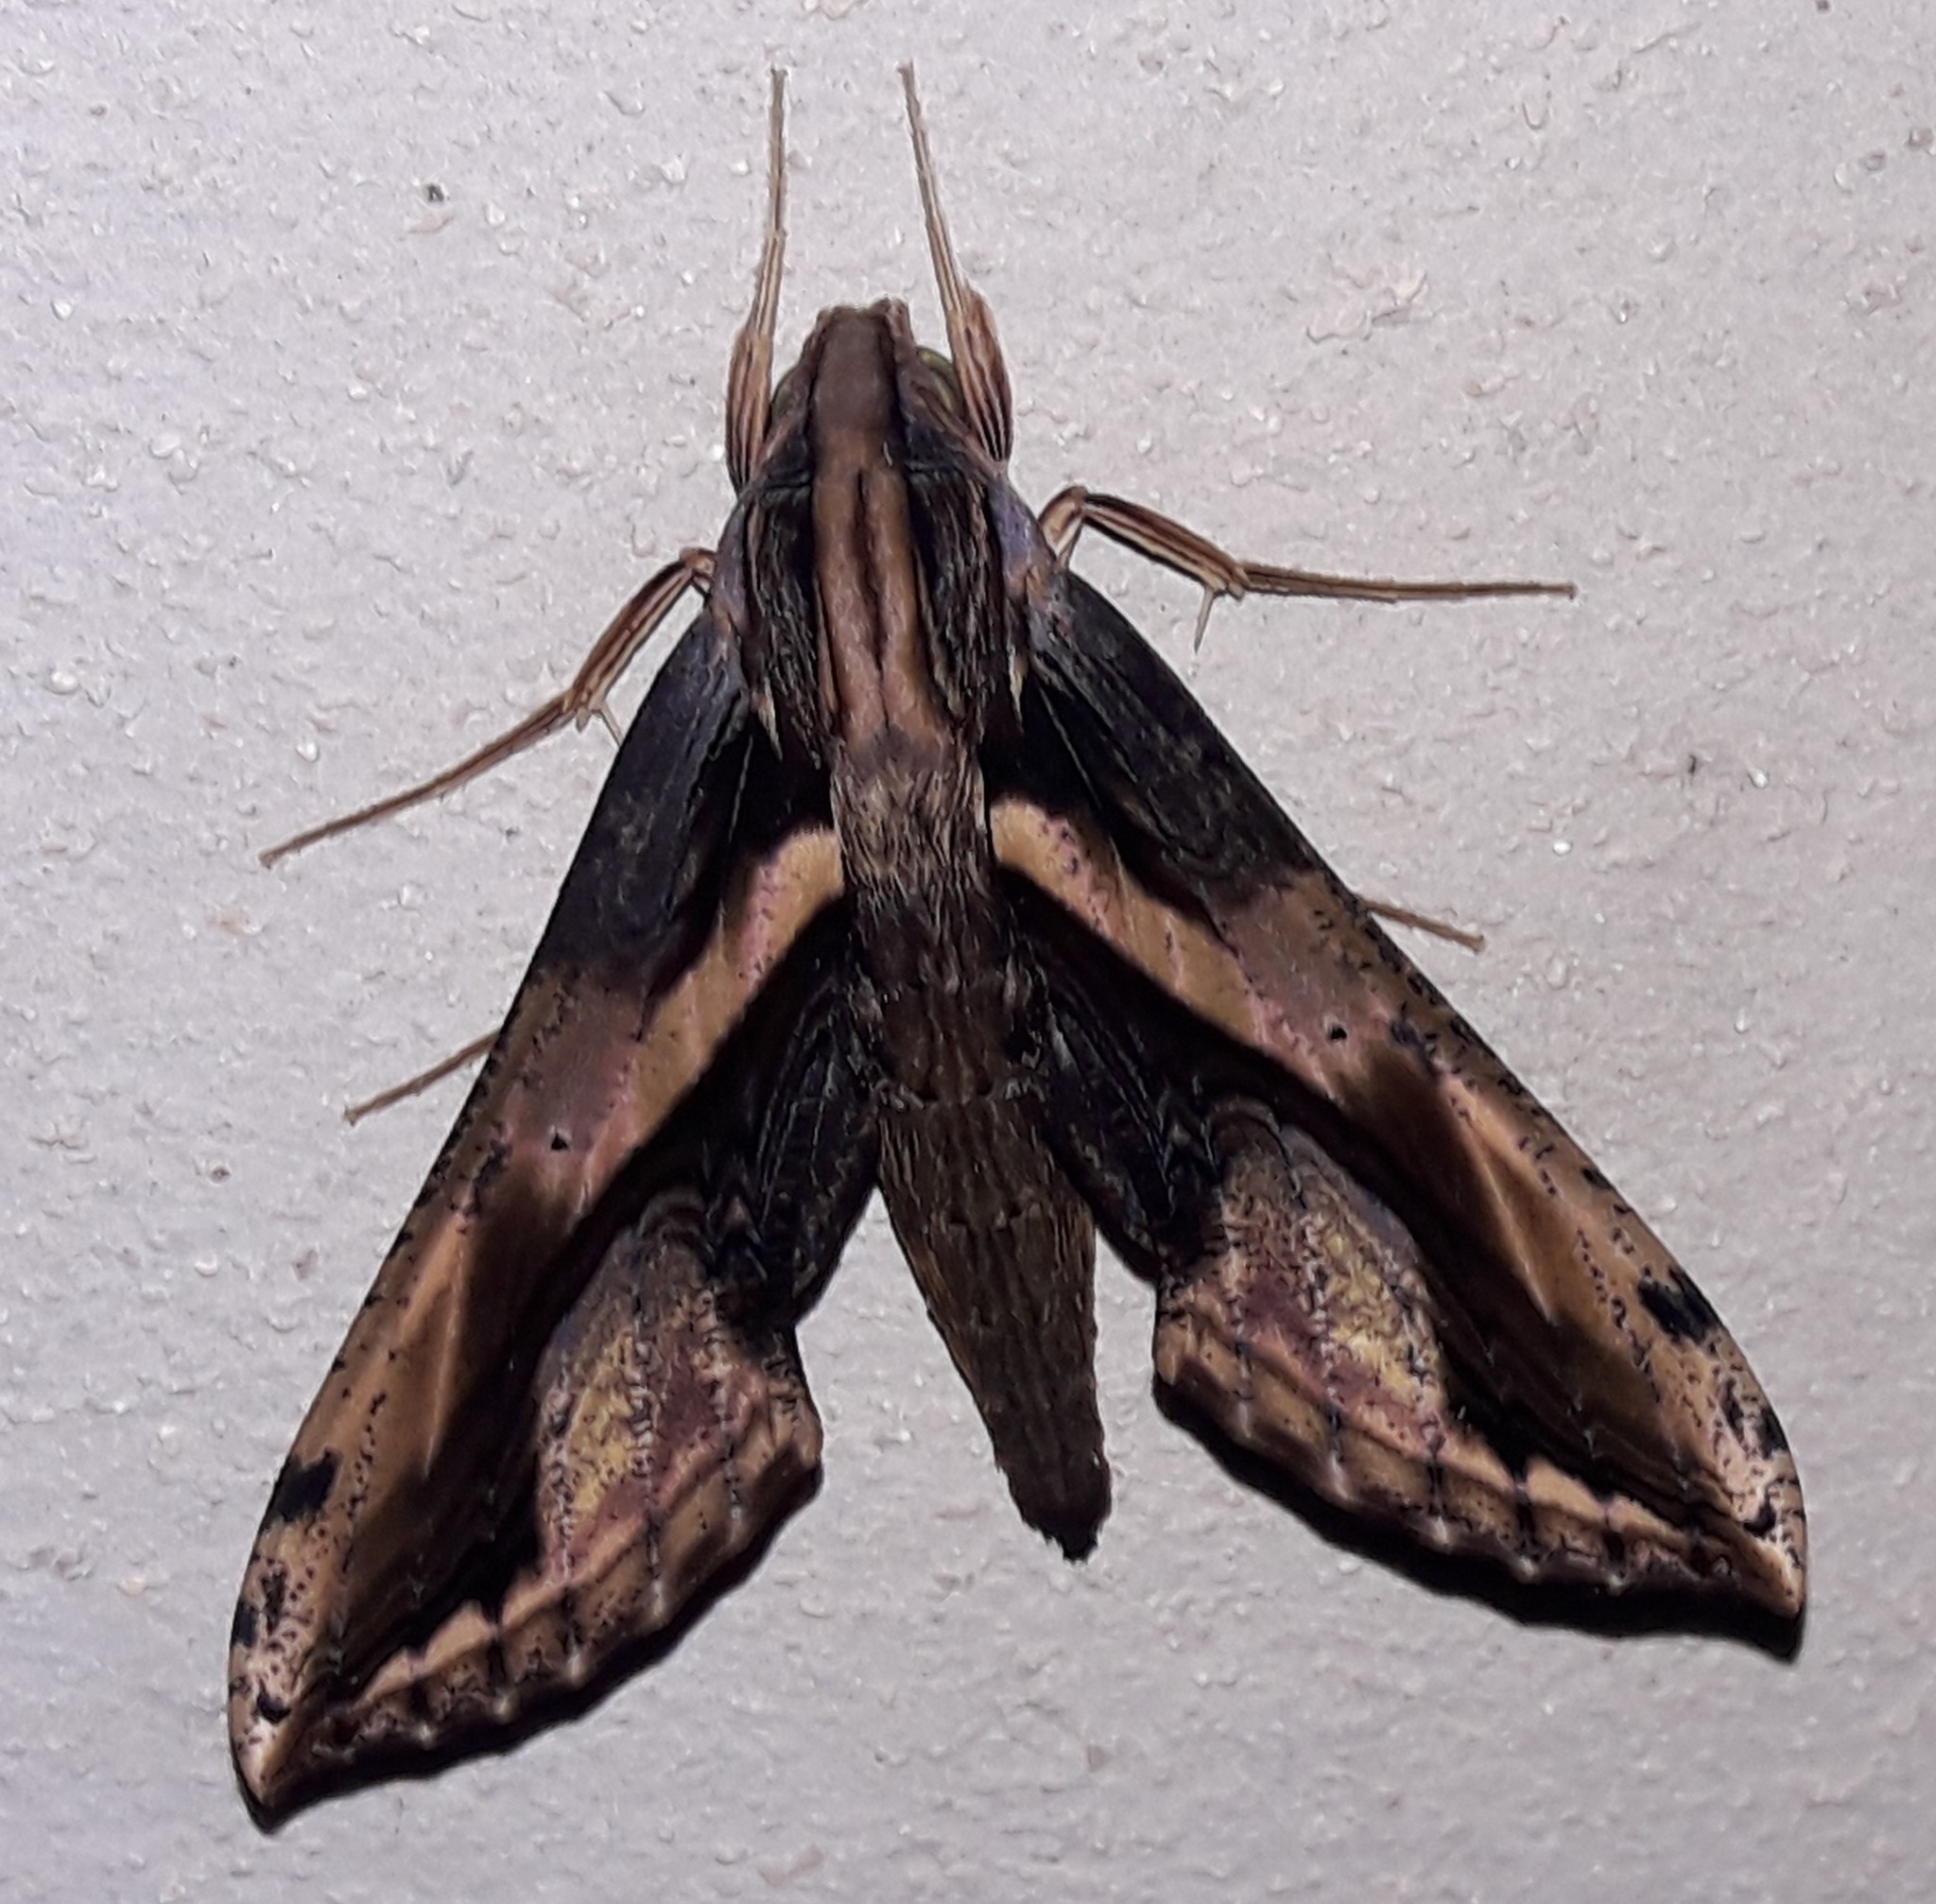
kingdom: Animalia
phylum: Arthropoda
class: Insecta
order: Lepidoptera
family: Sphingidae
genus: Xylophanes
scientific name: Xylophanes ceratomioides
